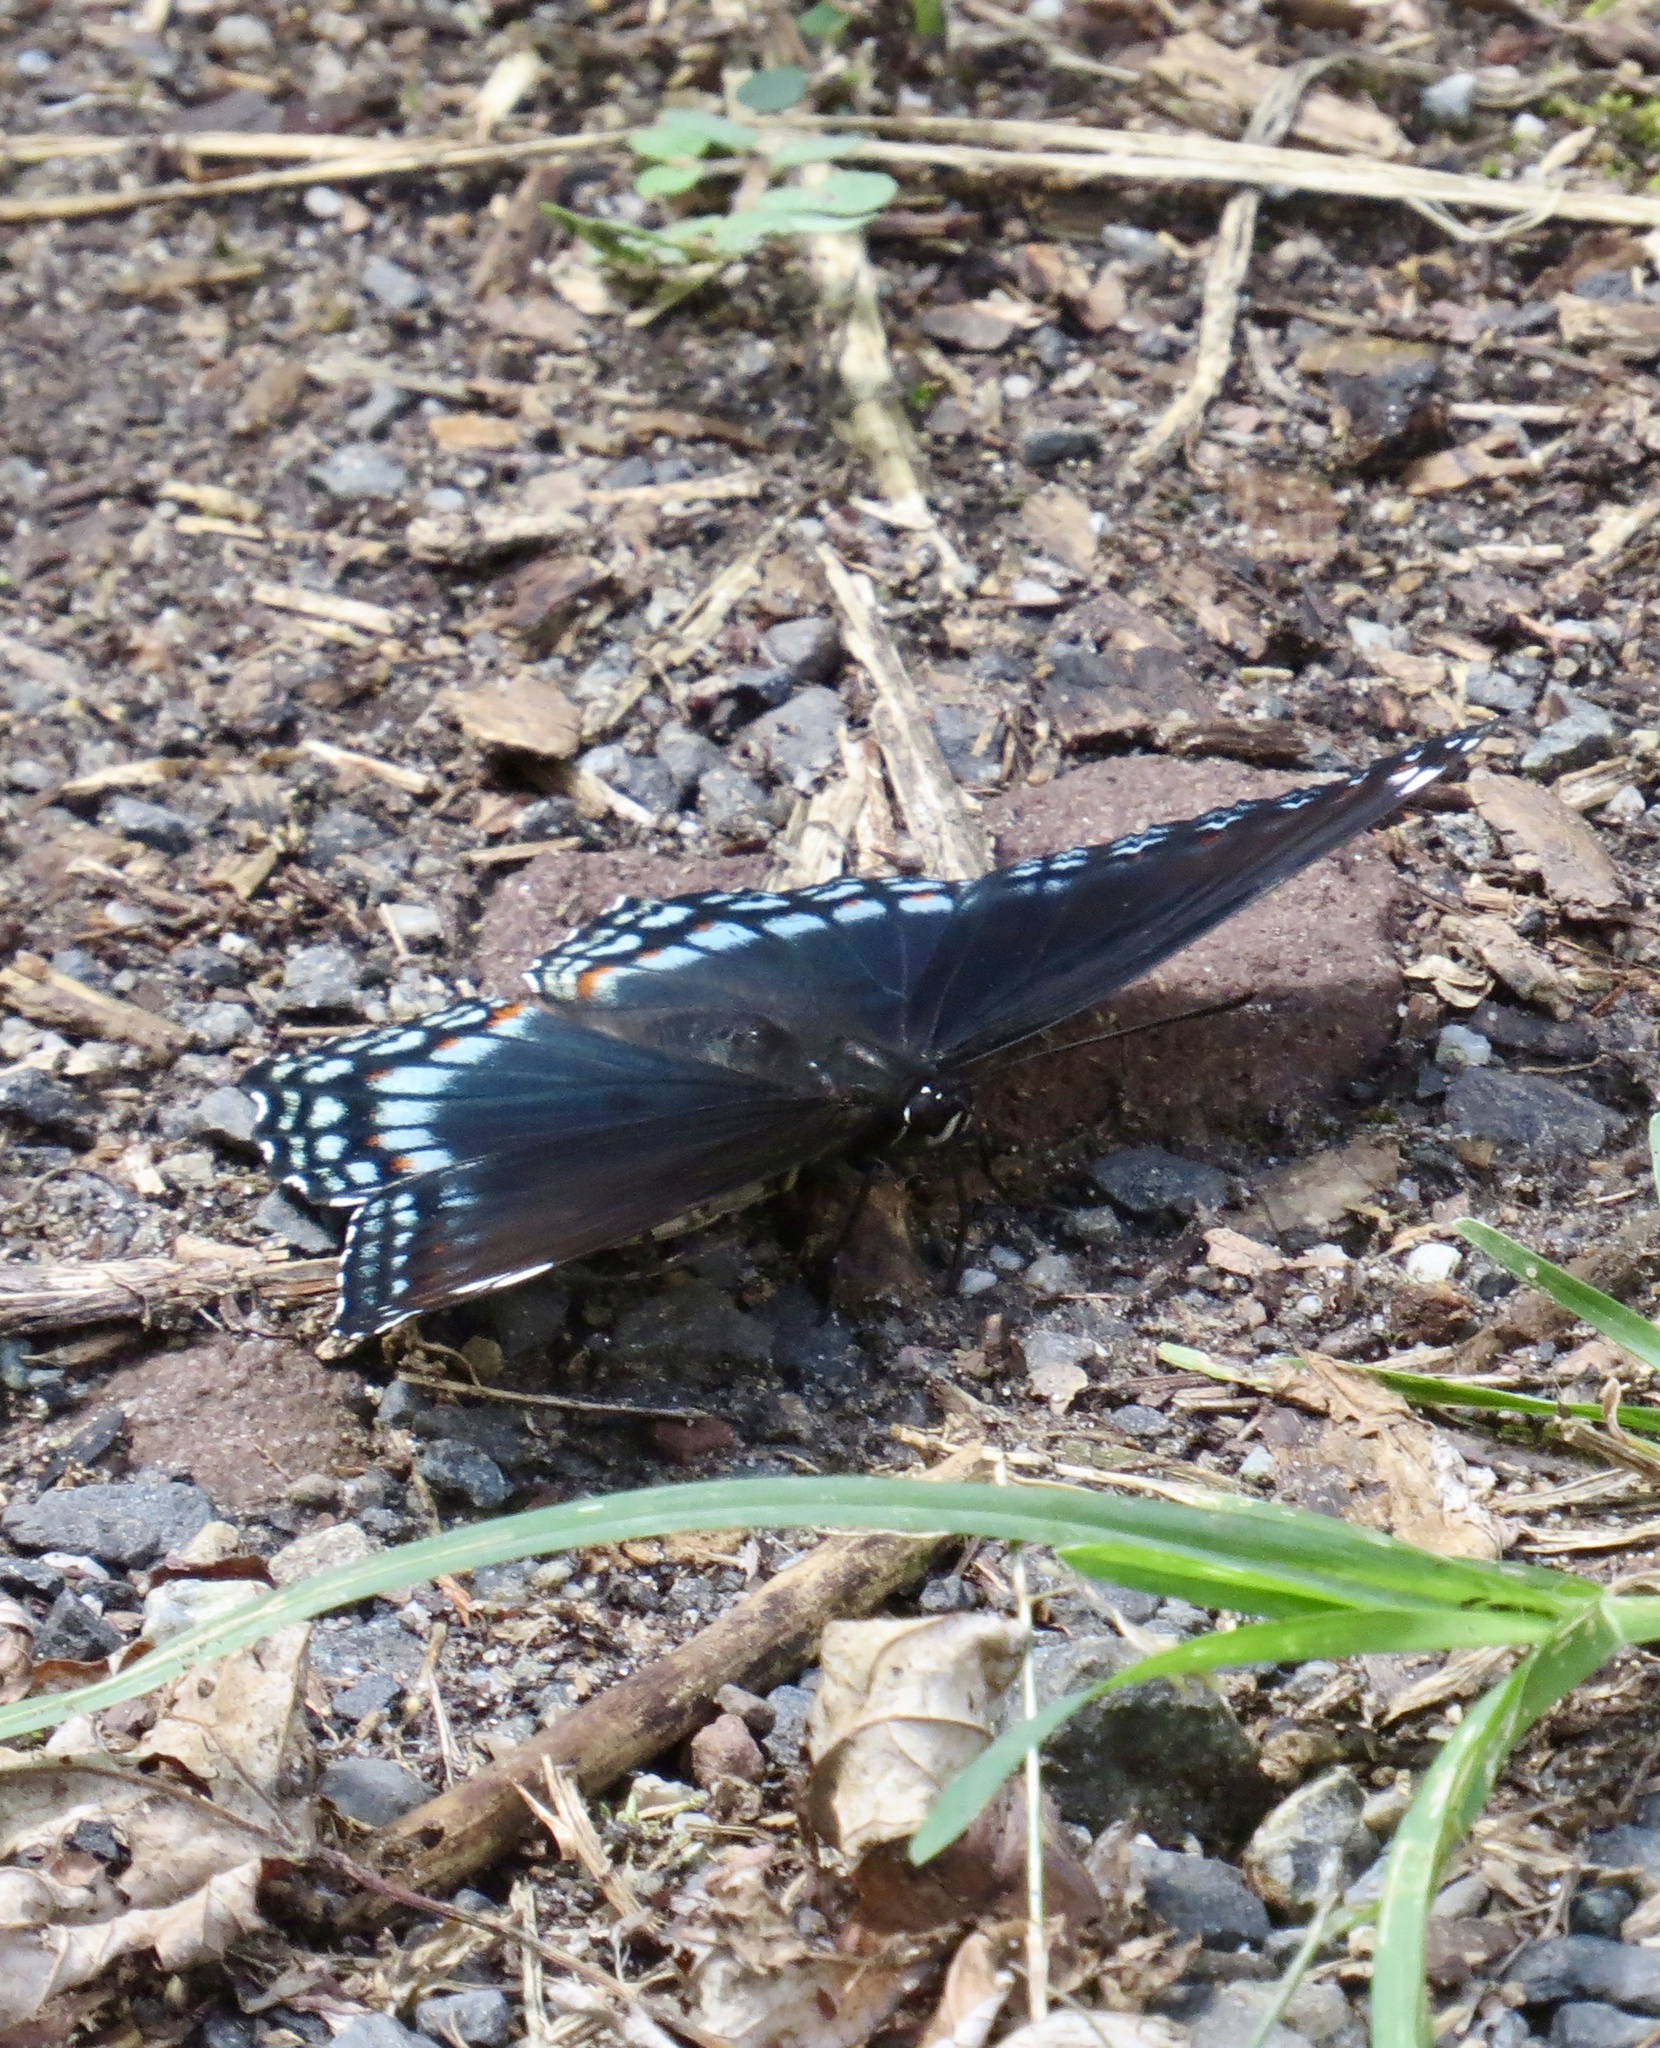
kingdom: Animalia
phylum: Arthropoda
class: Insecta
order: Lepidoptera
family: Nymphalidae
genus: Limenitis
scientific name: Limenitis arthemis
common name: Red-spotted admiral
